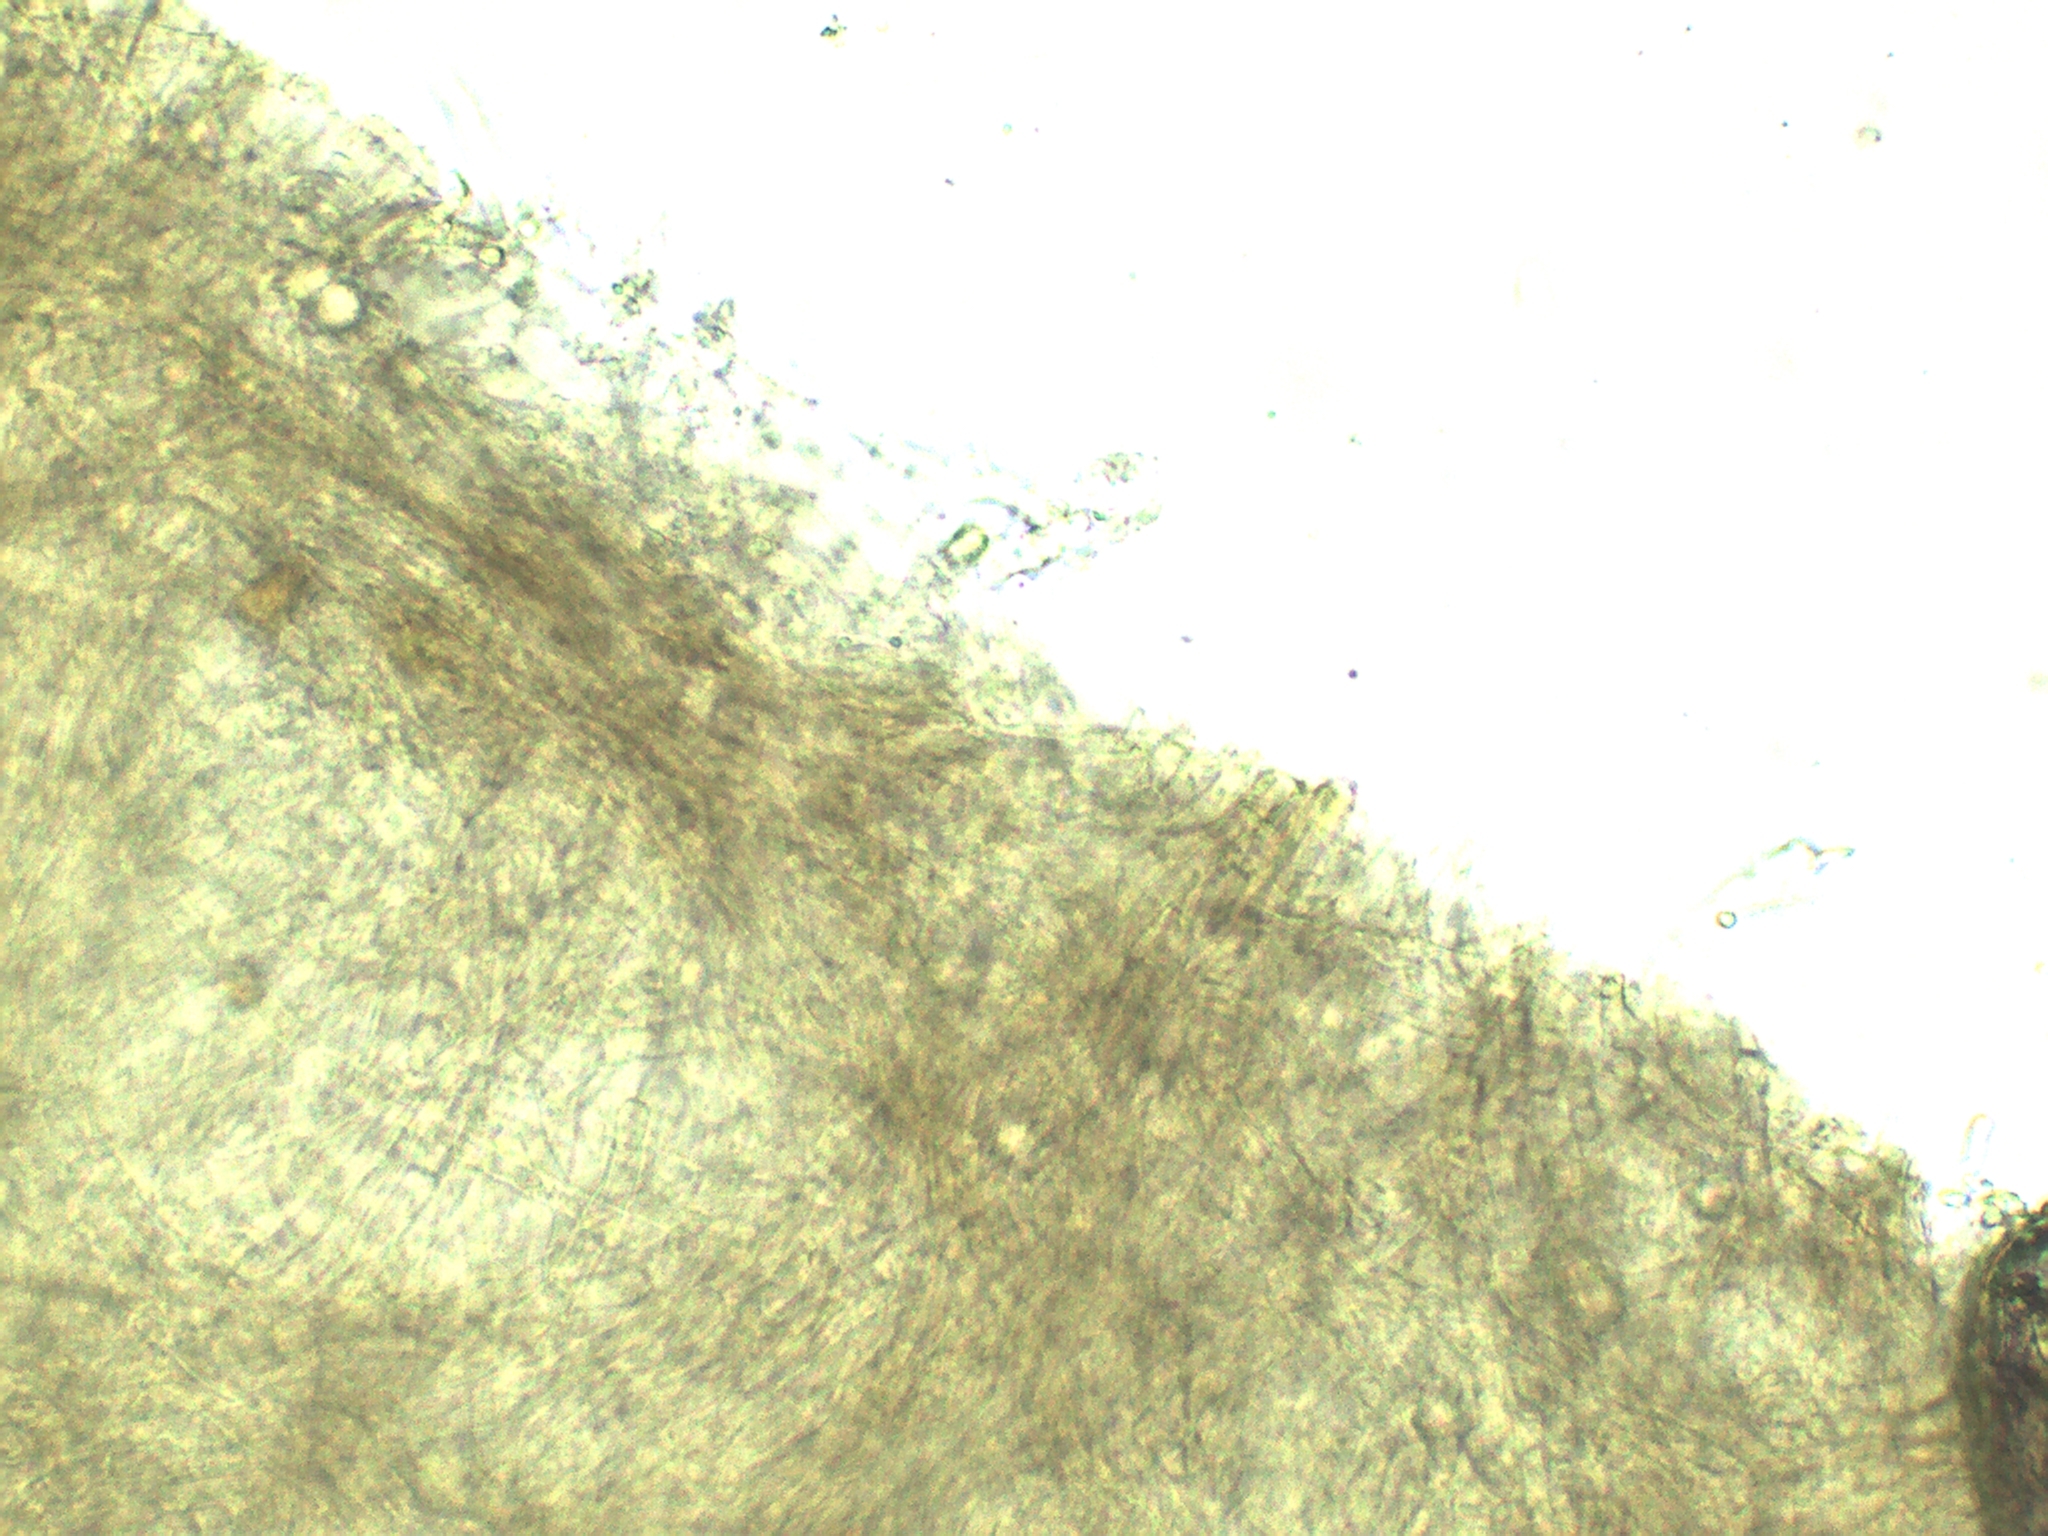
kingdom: Fungi
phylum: Basidiomycota
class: Agaricomycetes
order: Agaricales
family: Lyophyllaceae
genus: Lyophyllum
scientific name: Lyophyllum aemiliae
